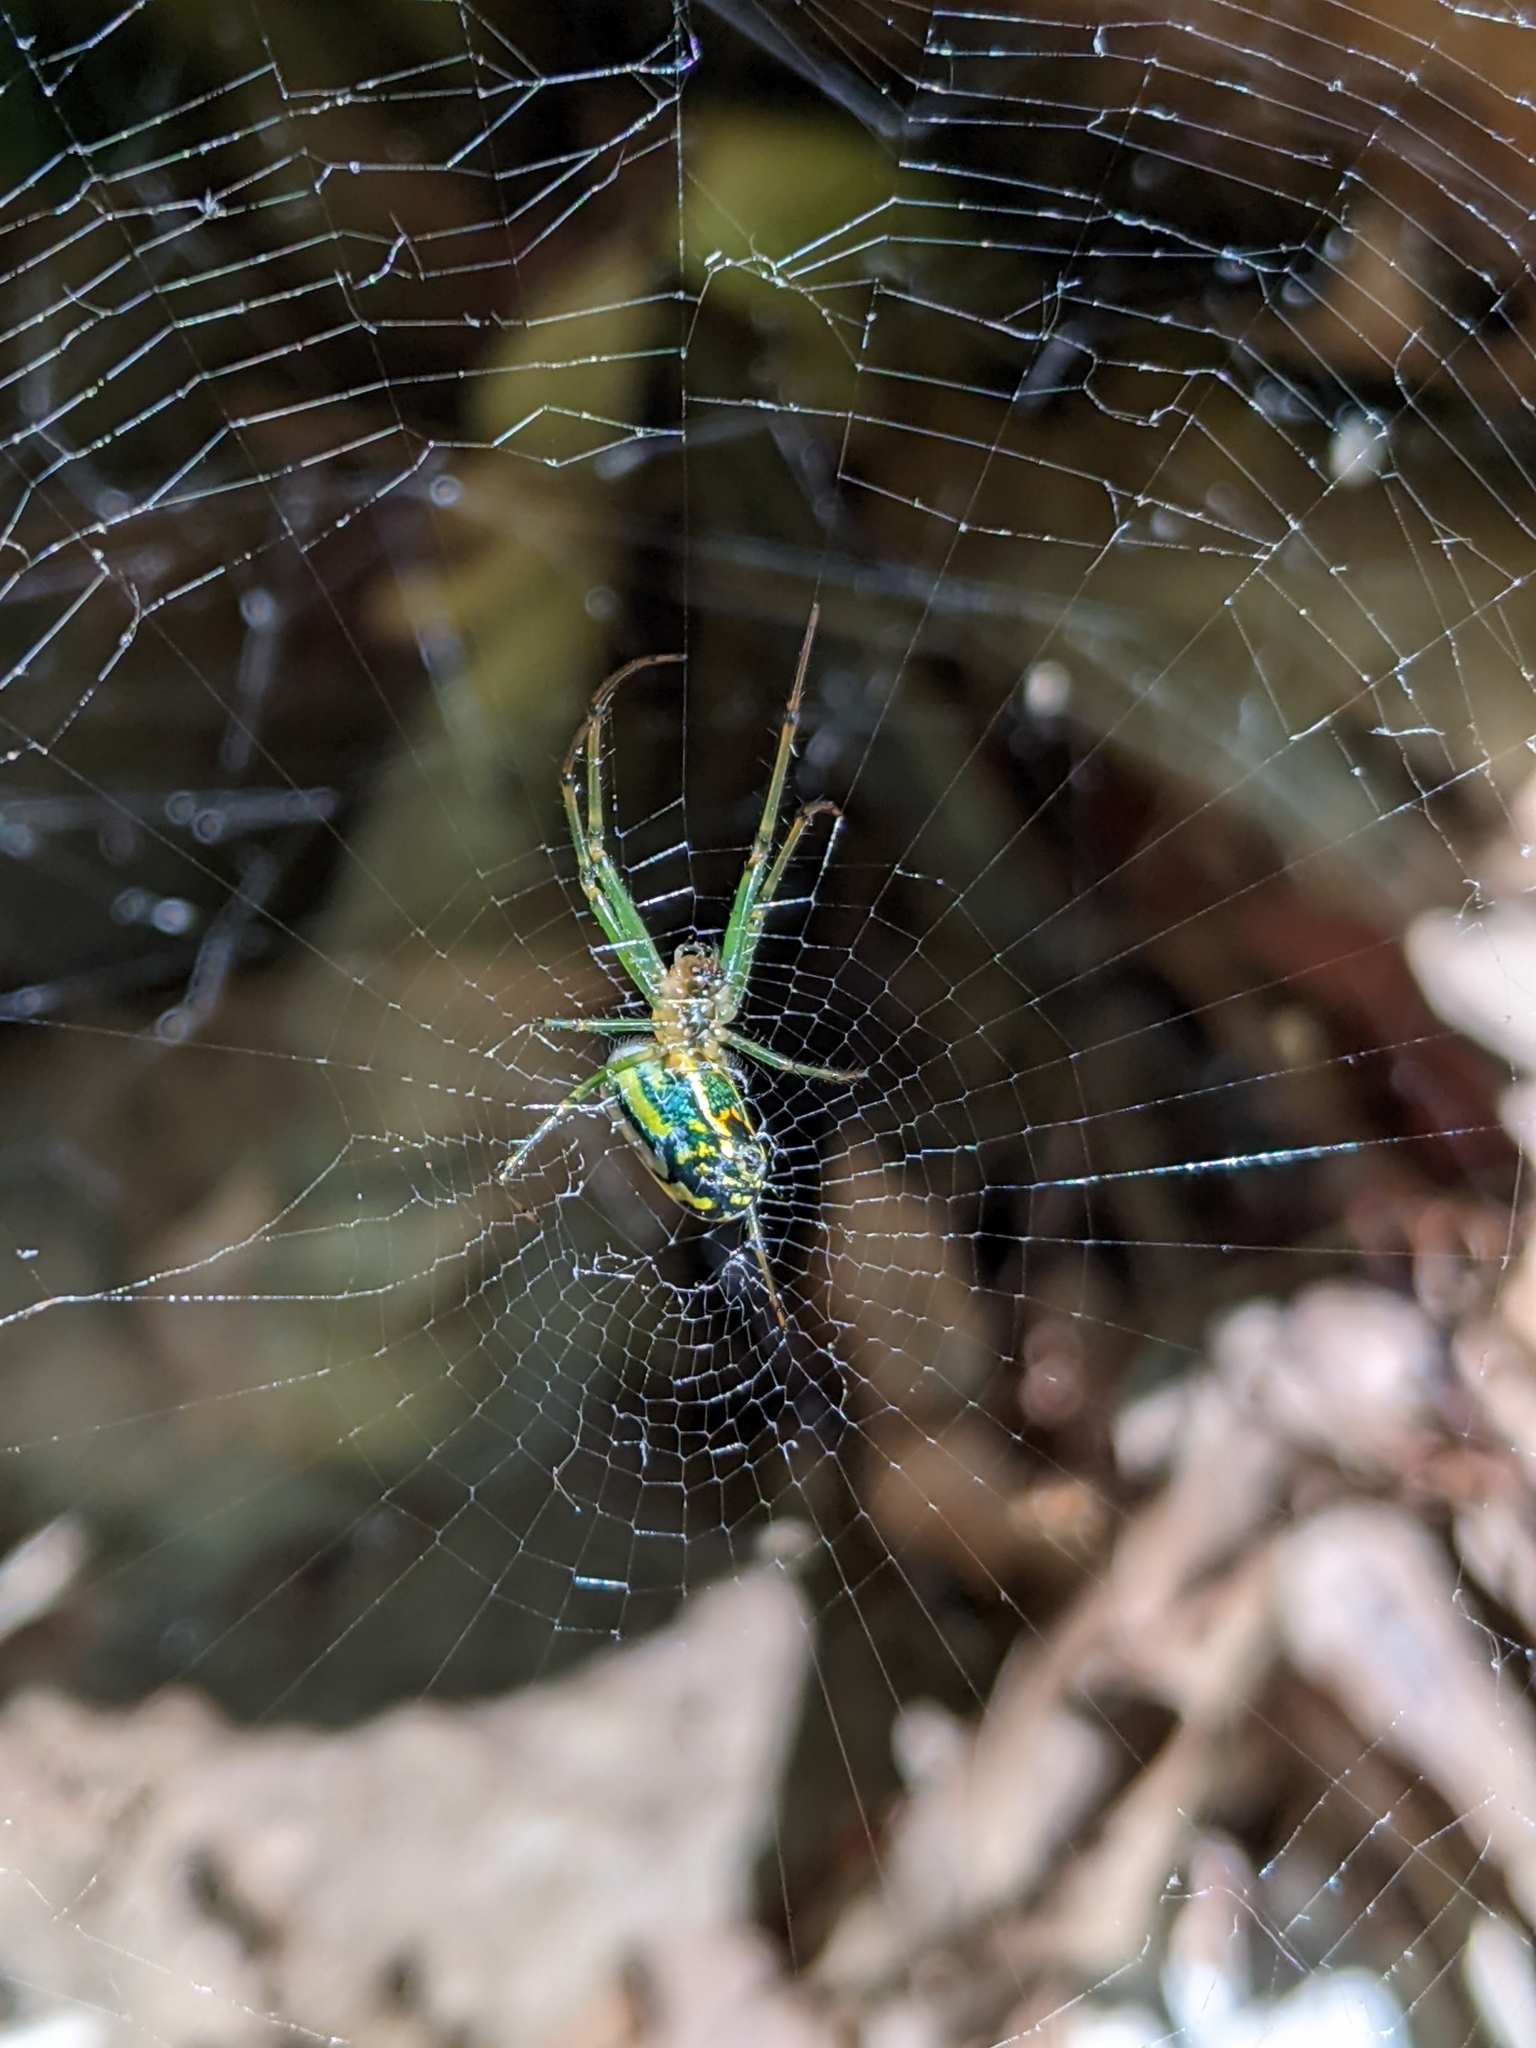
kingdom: Animalia
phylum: Arthropoda
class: Arachnida
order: Araneae
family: Tetragnathidae
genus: Leucauge
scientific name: Leucauge venusta
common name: Longjawed orb weavers
